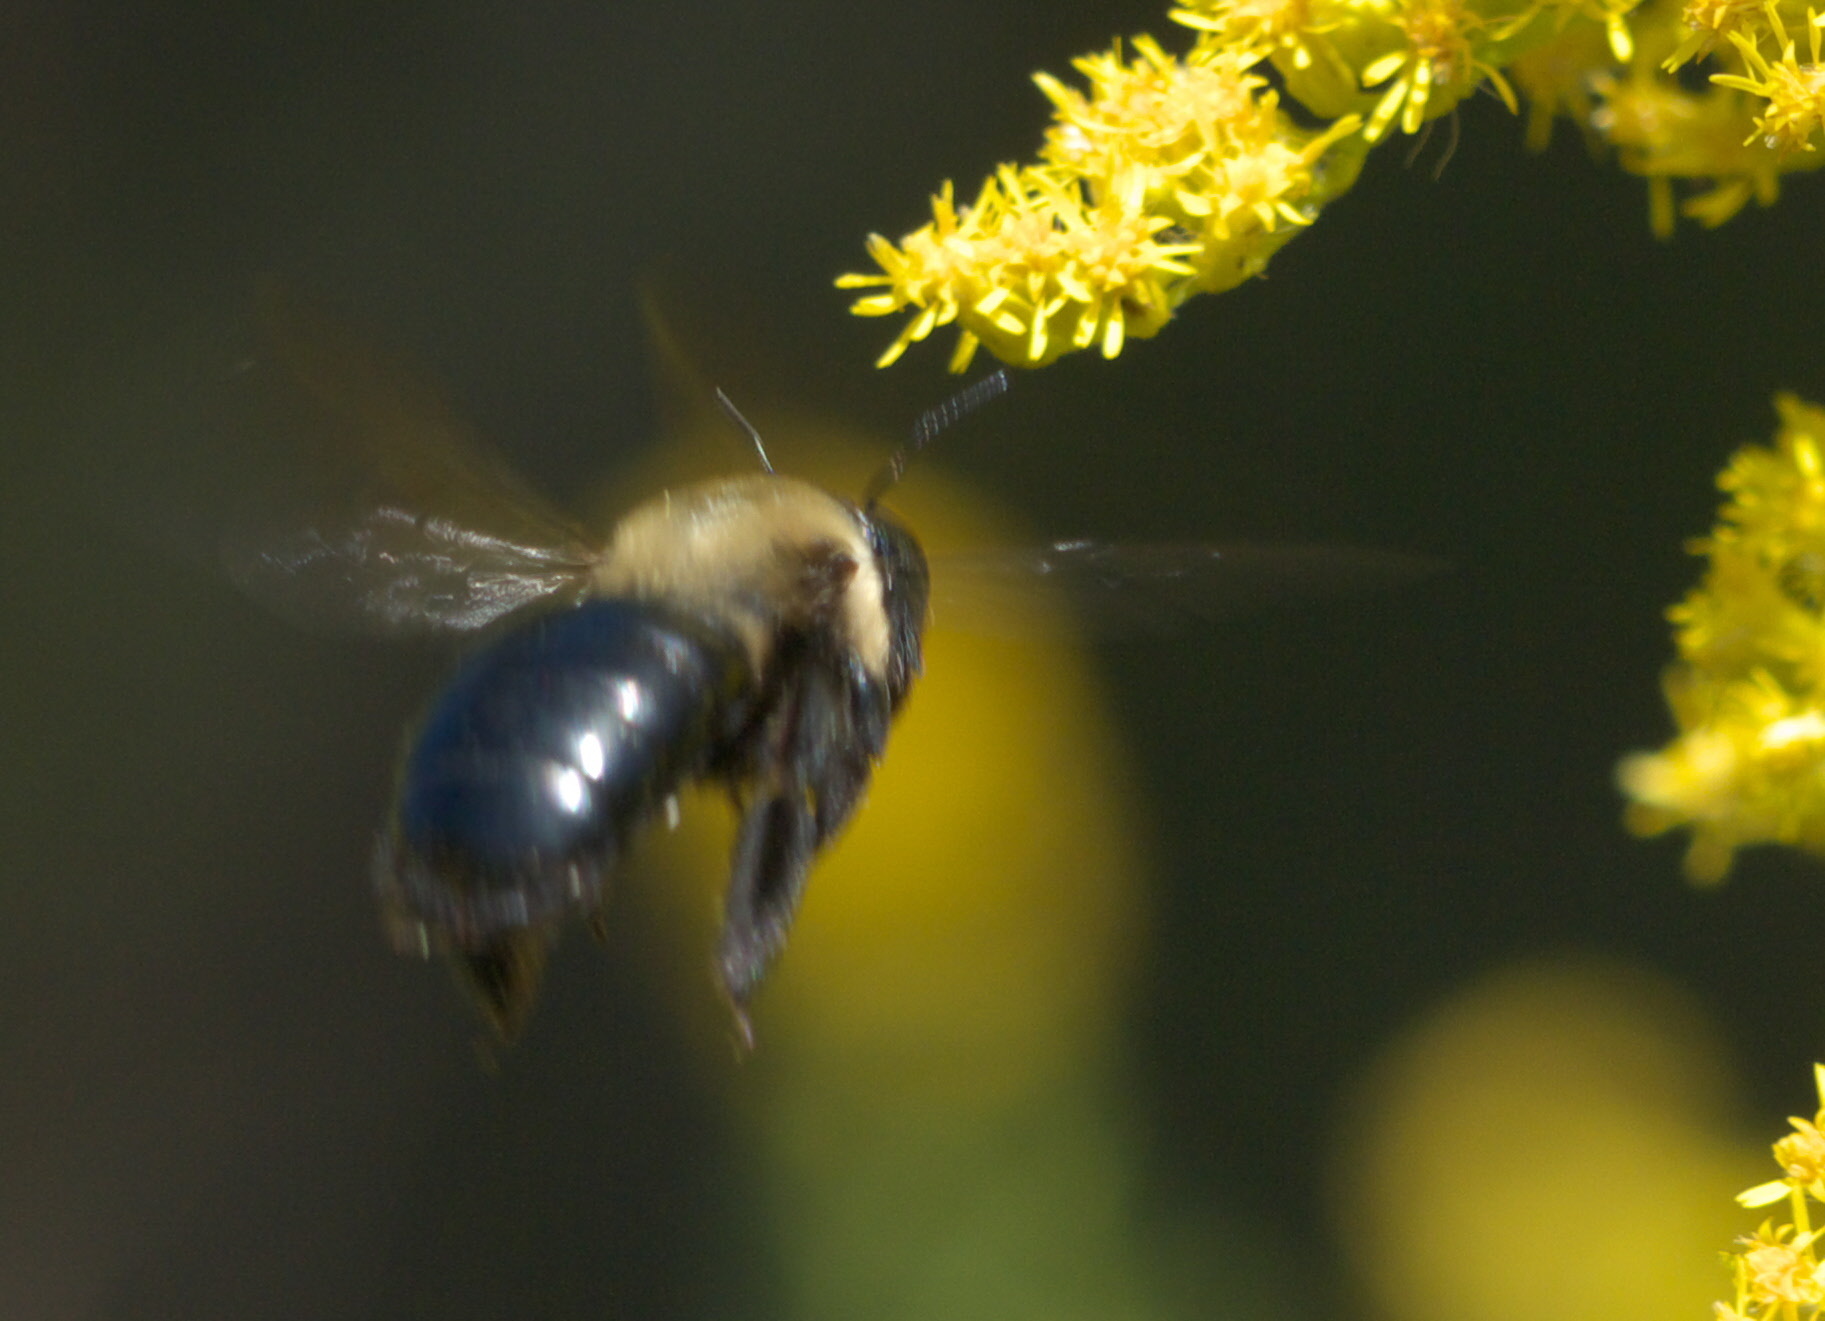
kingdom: Animalia
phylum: Arthropoda
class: Insecta
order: Hymenoptera
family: Apidae
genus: Xylocopa
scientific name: Xylocopa virginica
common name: Carpenter bee
